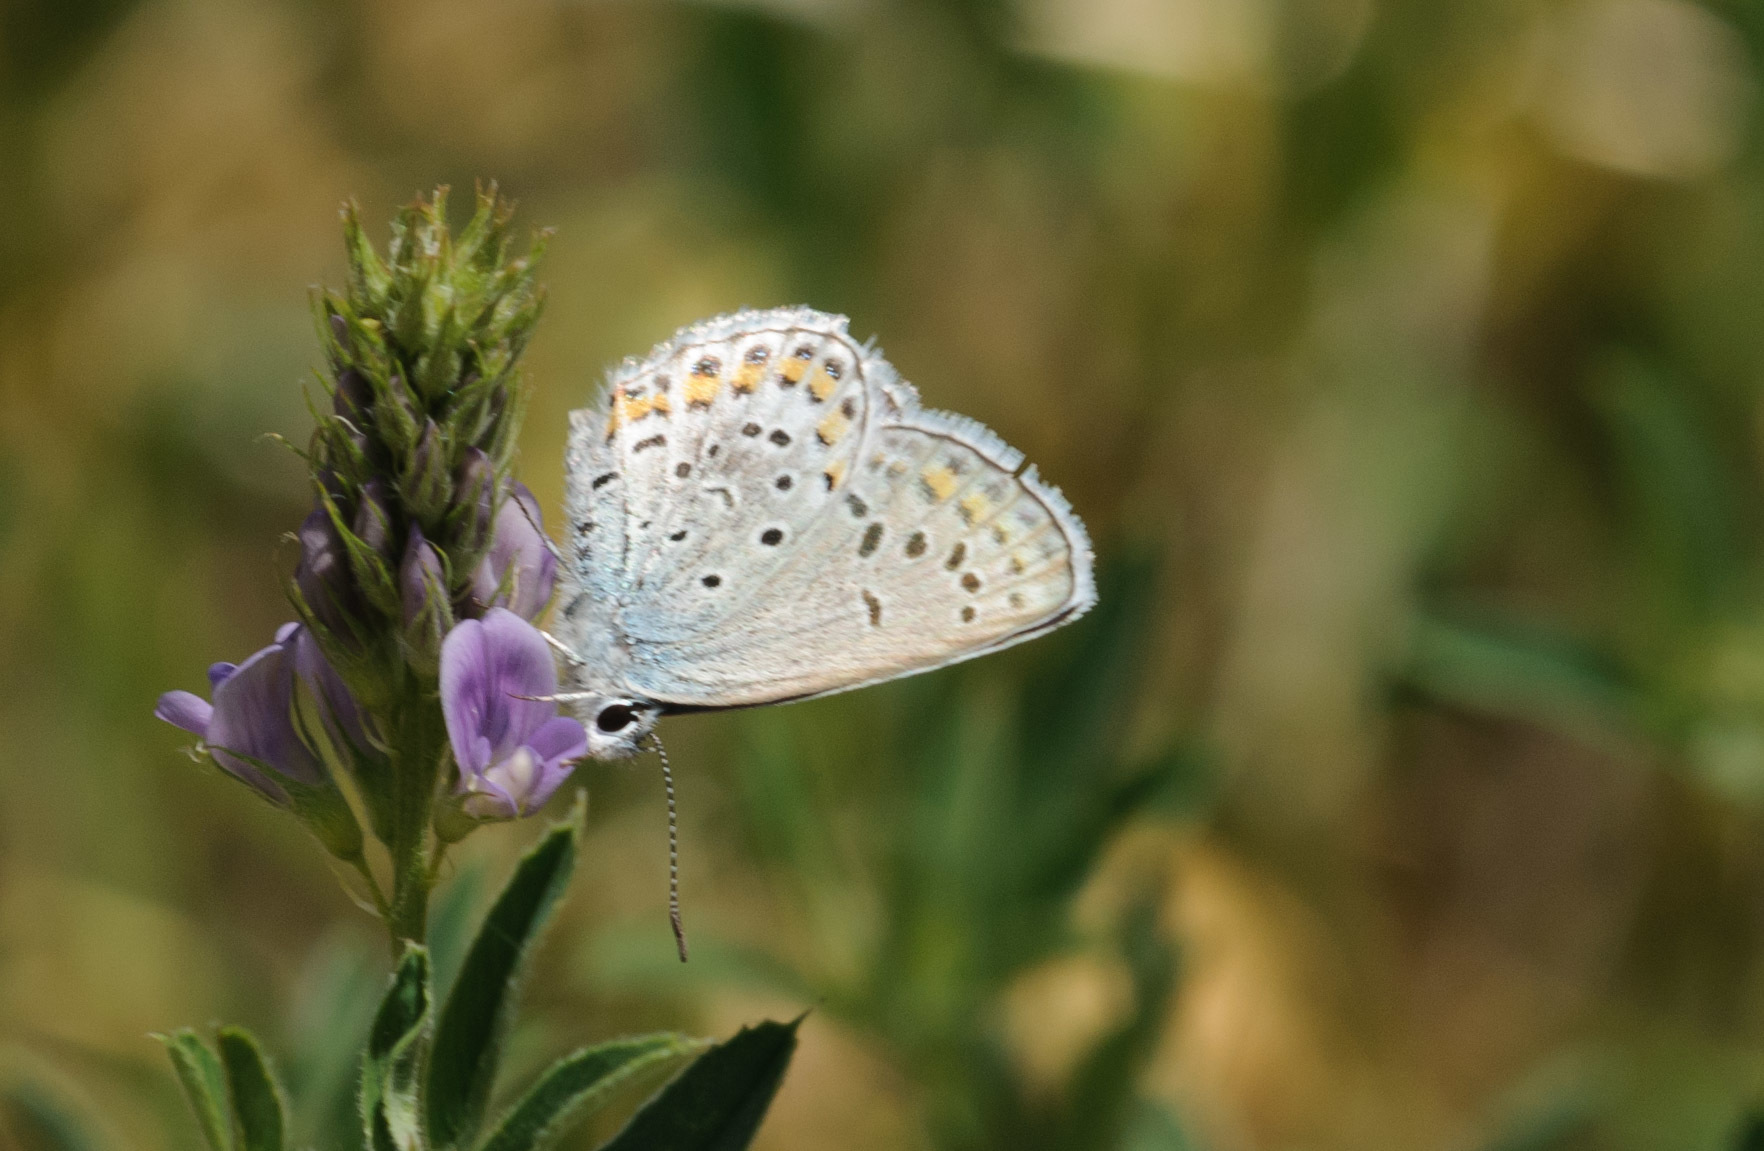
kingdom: Animalia
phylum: Arthropoda
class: Insecta
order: Lepidoptera
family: Lycaenidae
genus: Lycaeides
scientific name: Lycaeides melissa
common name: Melissa blue
